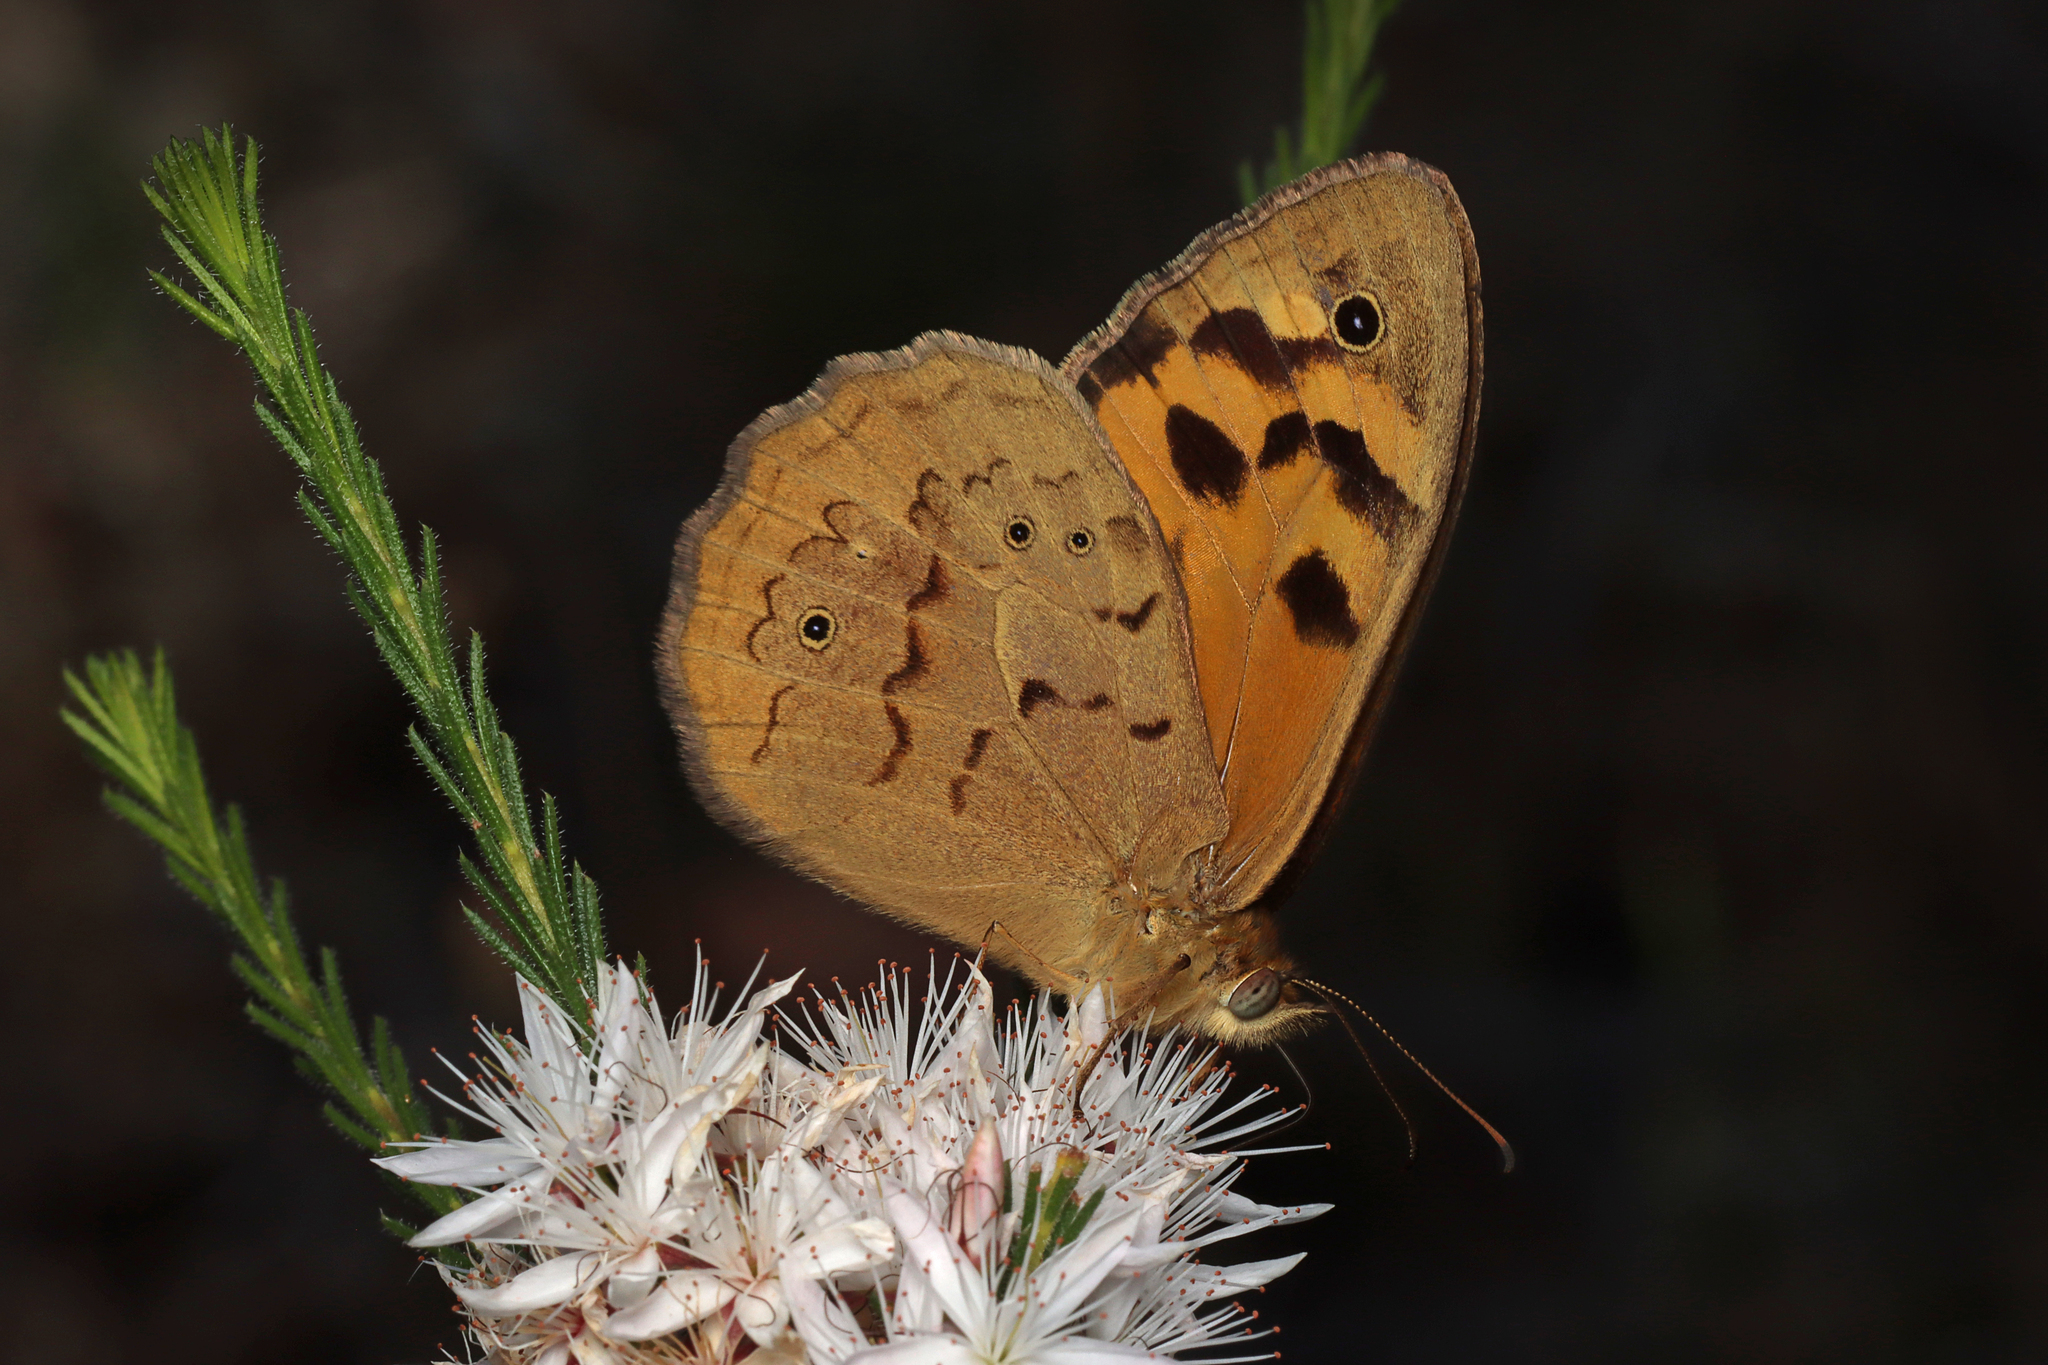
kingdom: Animalia
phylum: Arthropoda
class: Insecta
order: Lepidoptera
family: Nymphalidae
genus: Heteronympha
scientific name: Heteronympha merope
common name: Common brown
